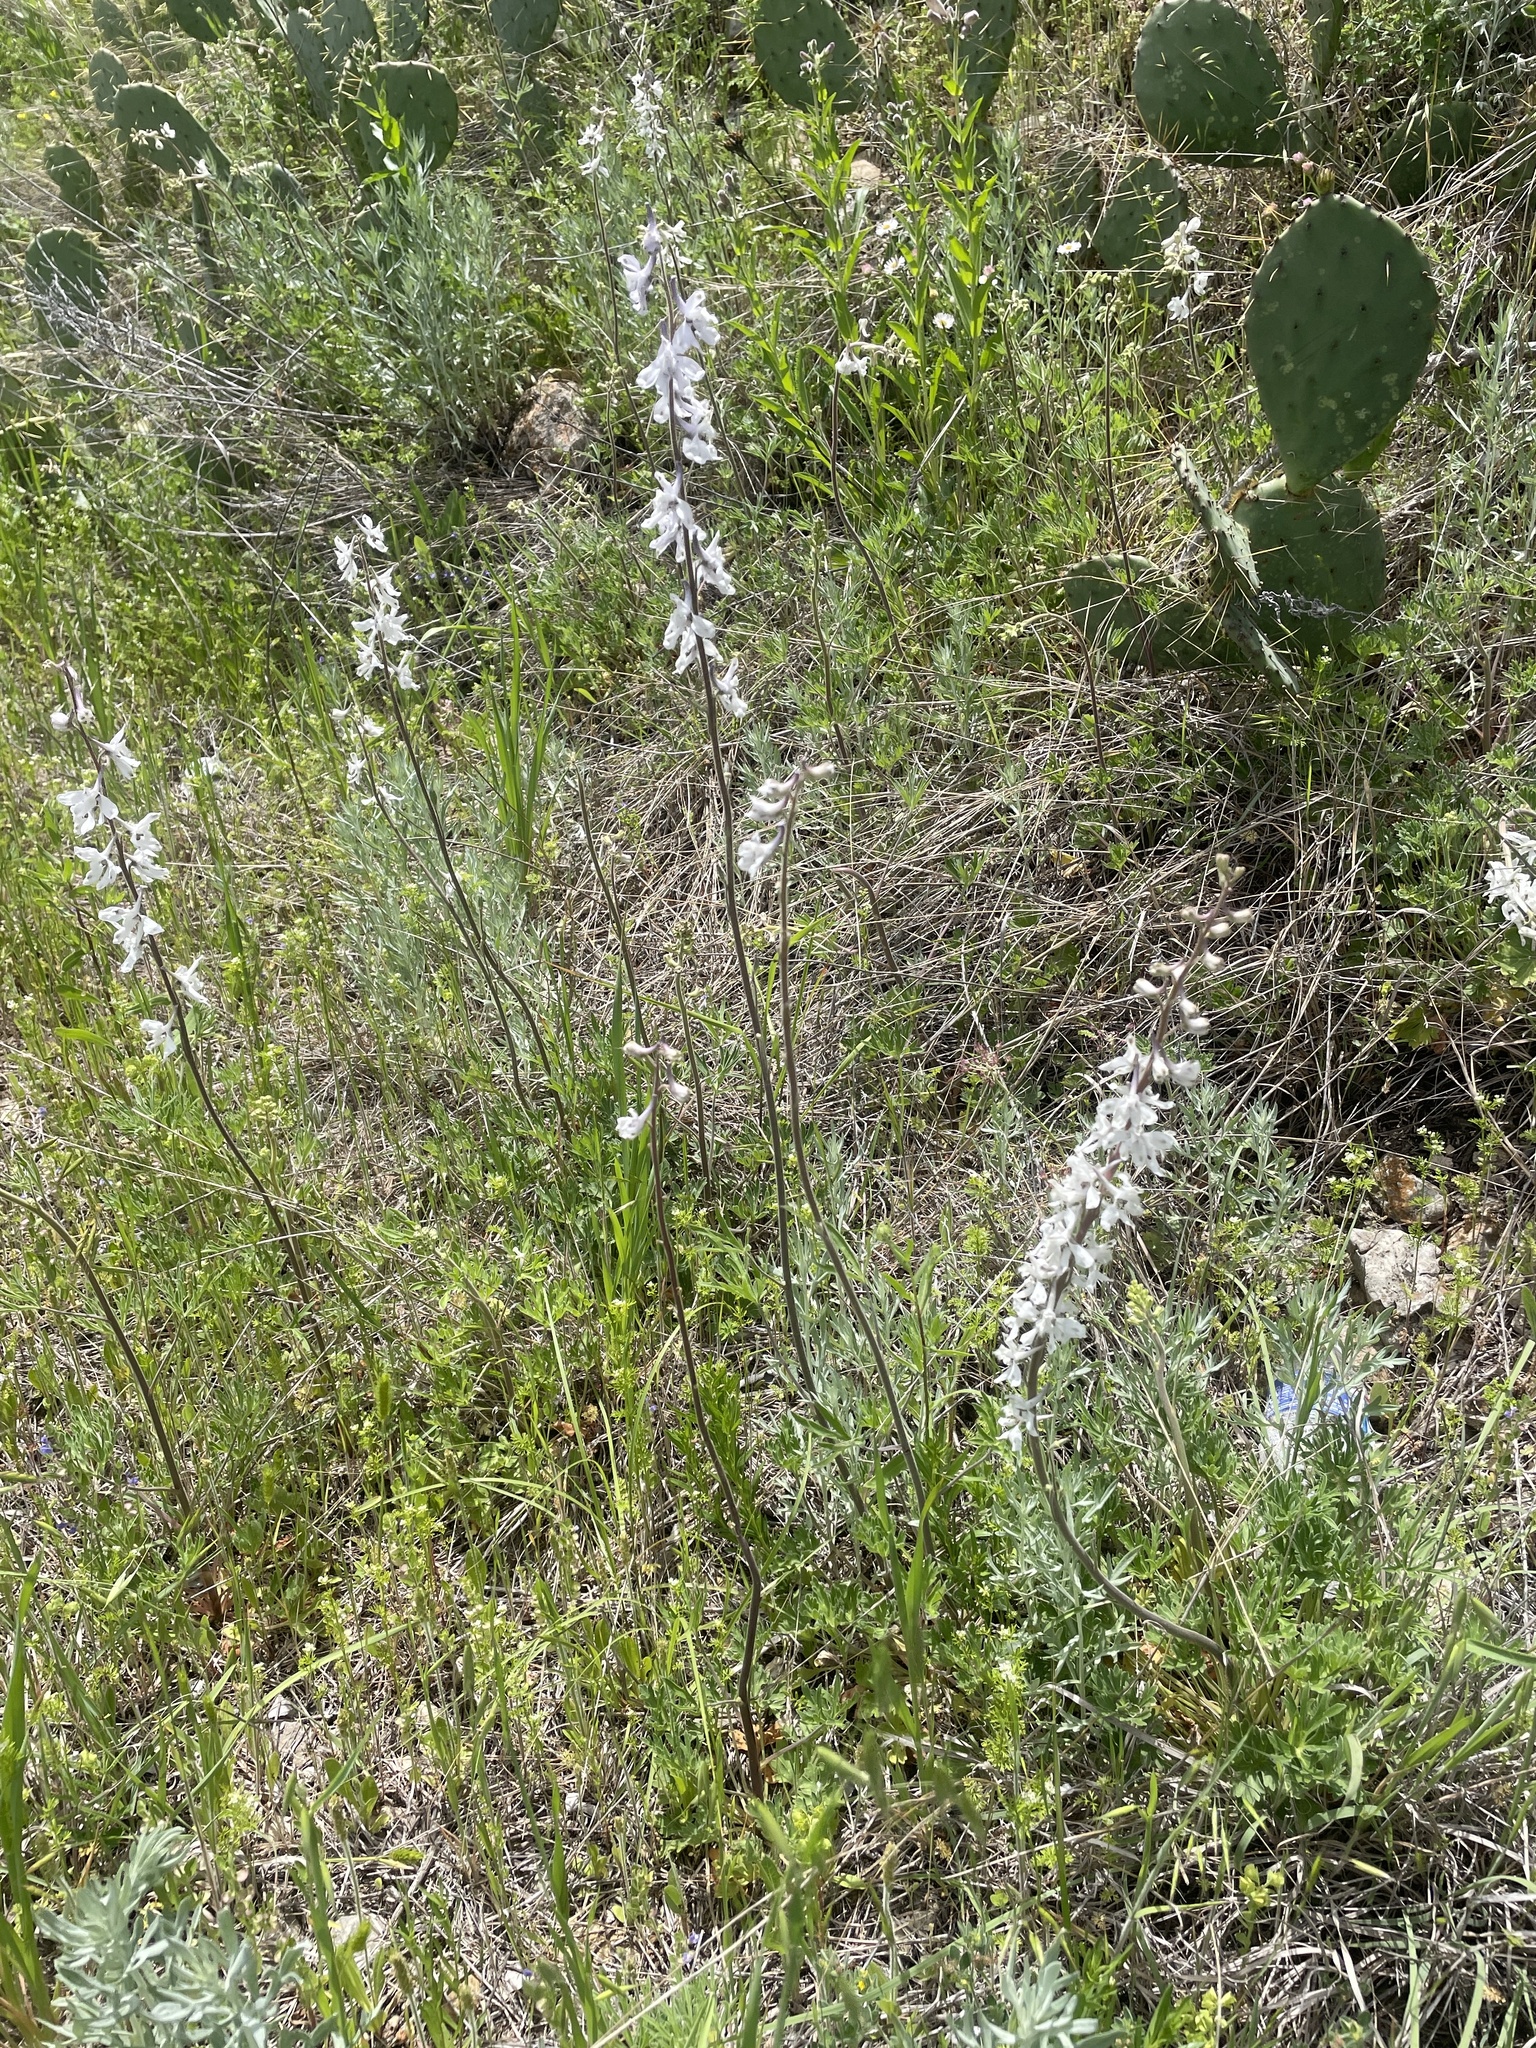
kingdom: Plantae
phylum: Tracheophyta
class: Magnoliopsida
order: Ranunculales
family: Ranunculaceae
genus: Delphinium
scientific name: Delphinium carolinianum
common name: Carolina larkspur
